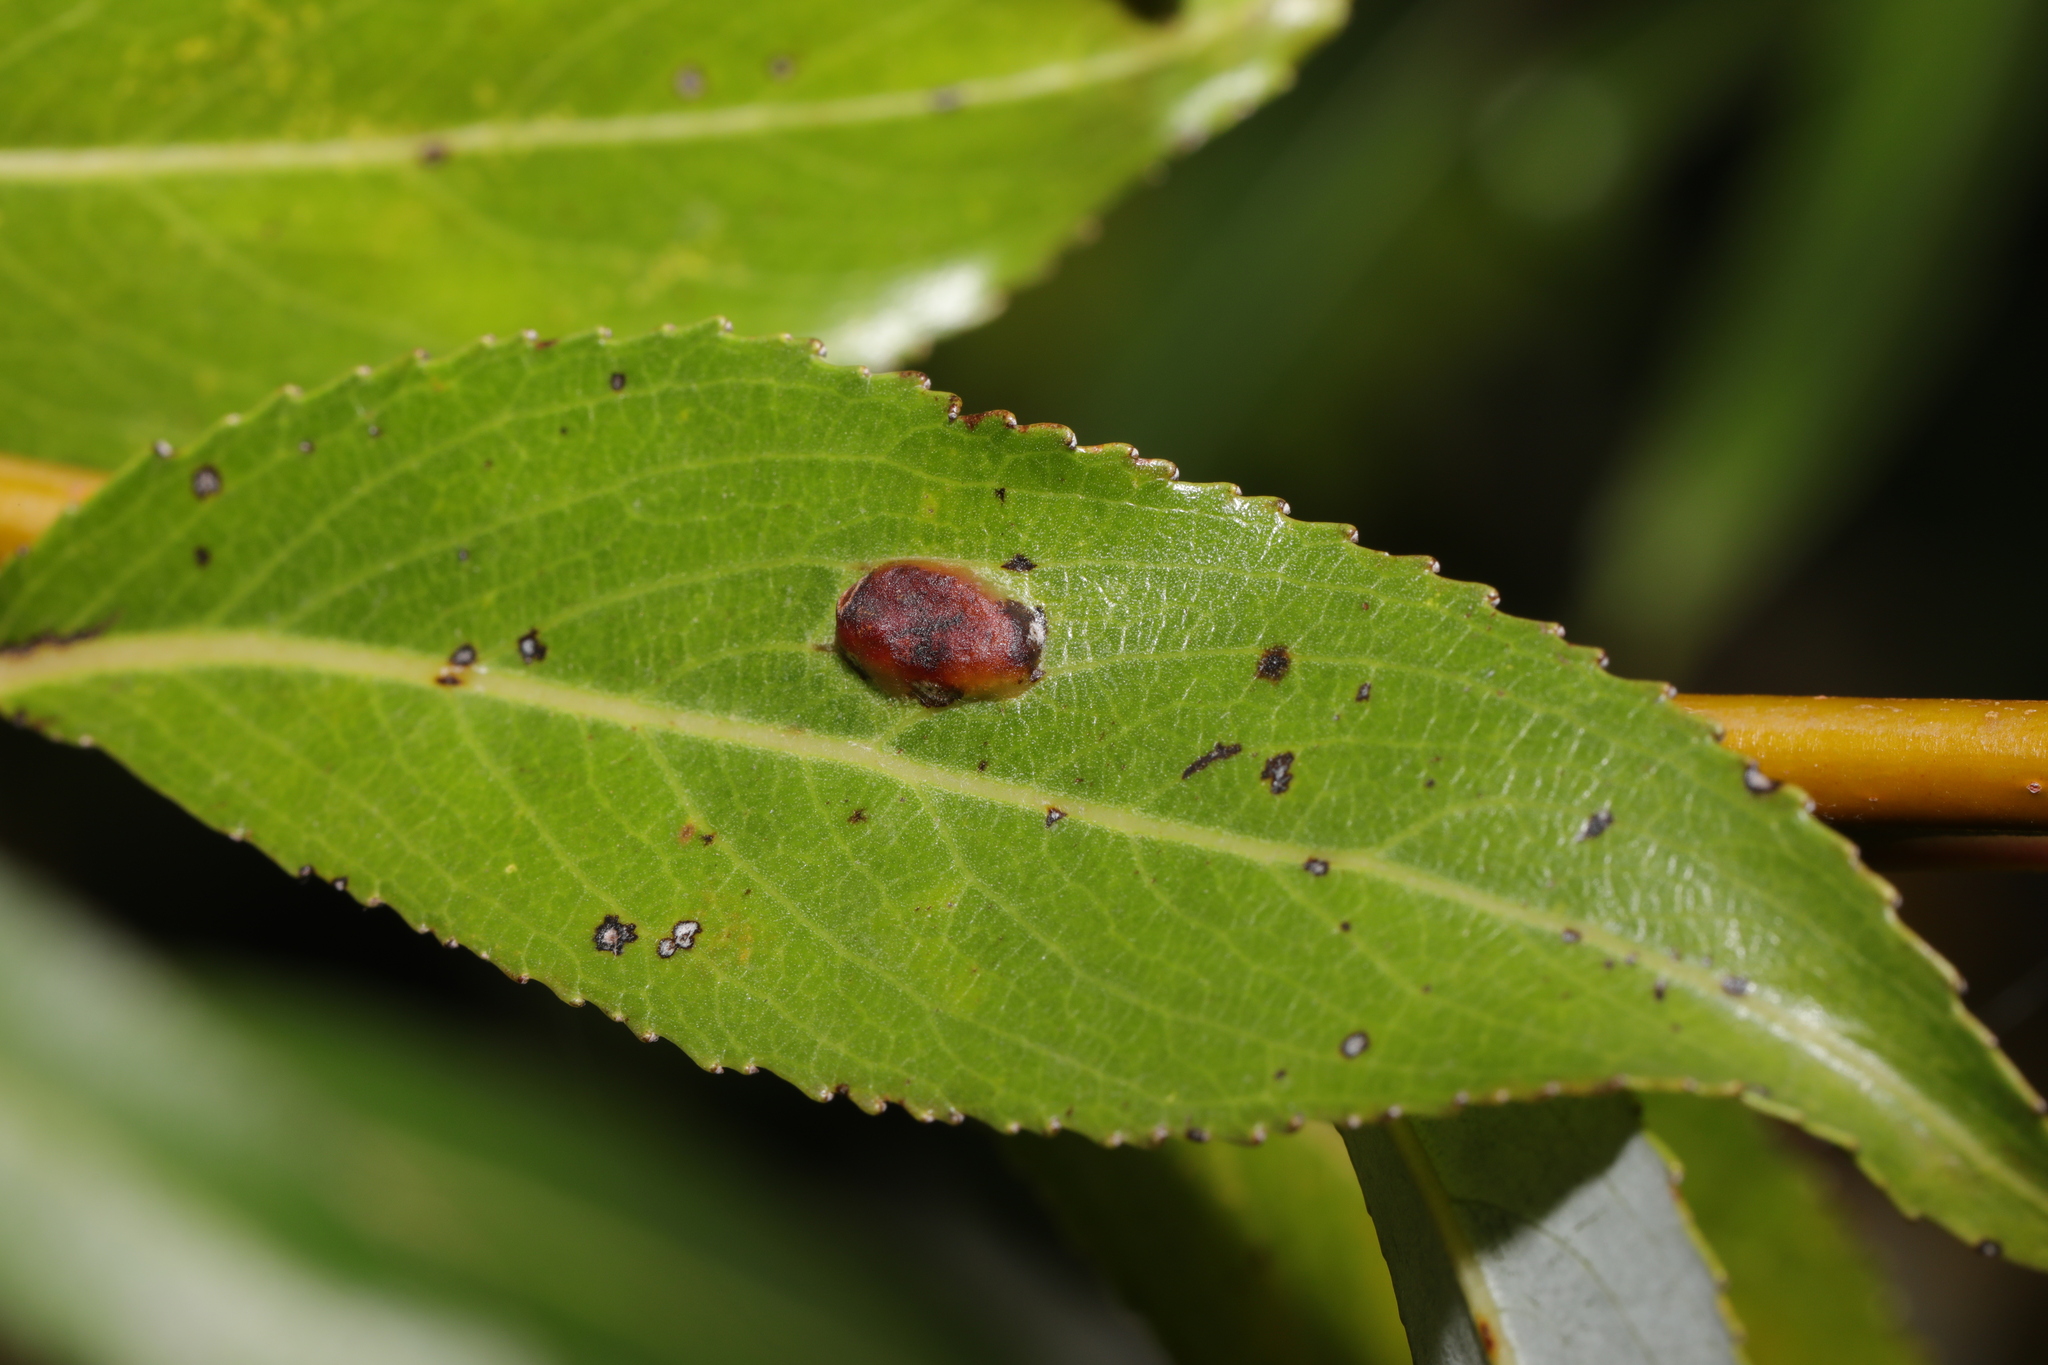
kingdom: Animalia
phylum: Arthropoda
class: Insecta
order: Hymenoptera
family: Tenthredinidae
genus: Pontania
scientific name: Pontania proxima
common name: Common sawfly
